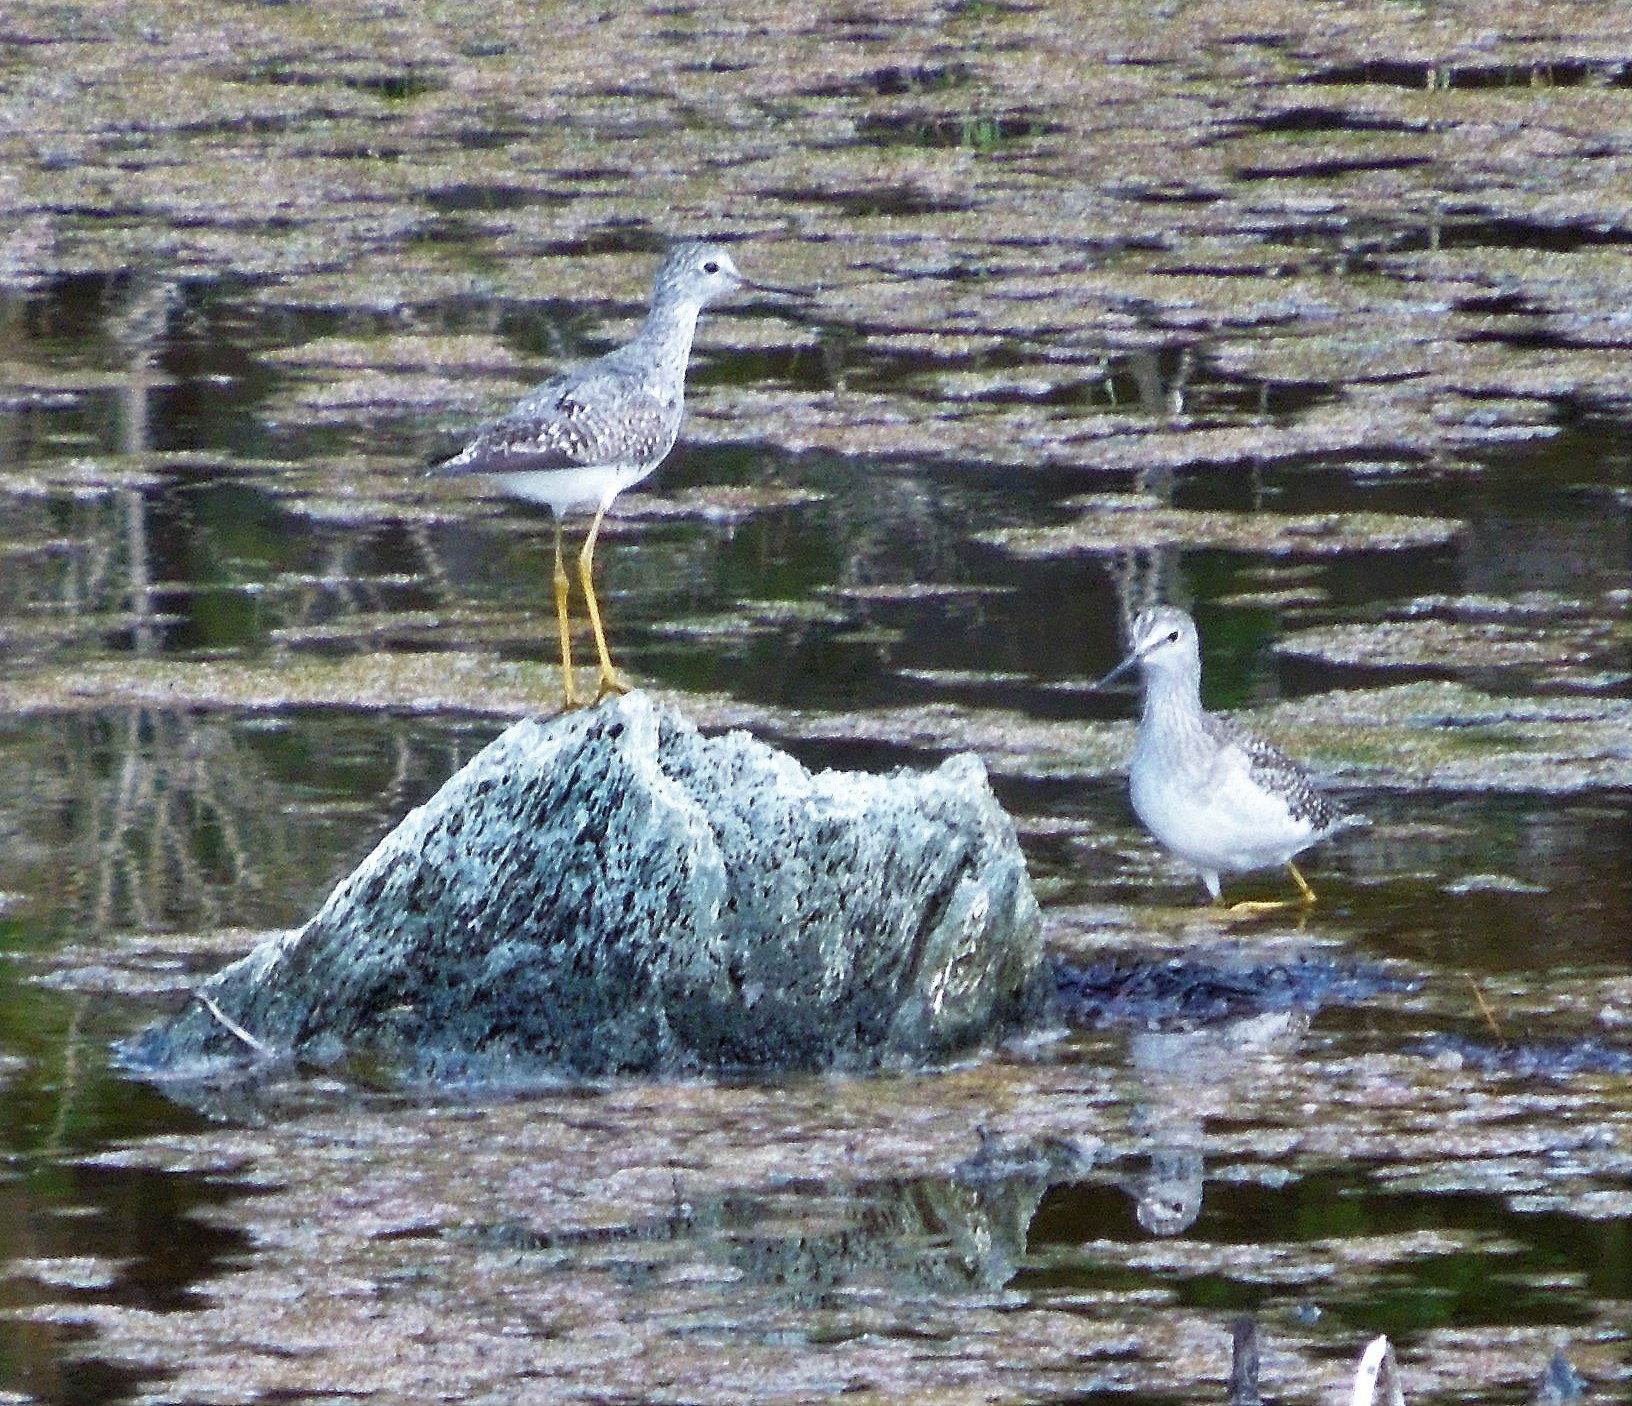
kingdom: Animalia
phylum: Chordata
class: Aves
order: Charadriiformes
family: Scolopacidae
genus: Tringa
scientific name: Tringa flavipes
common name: Lesser yellowlegs
